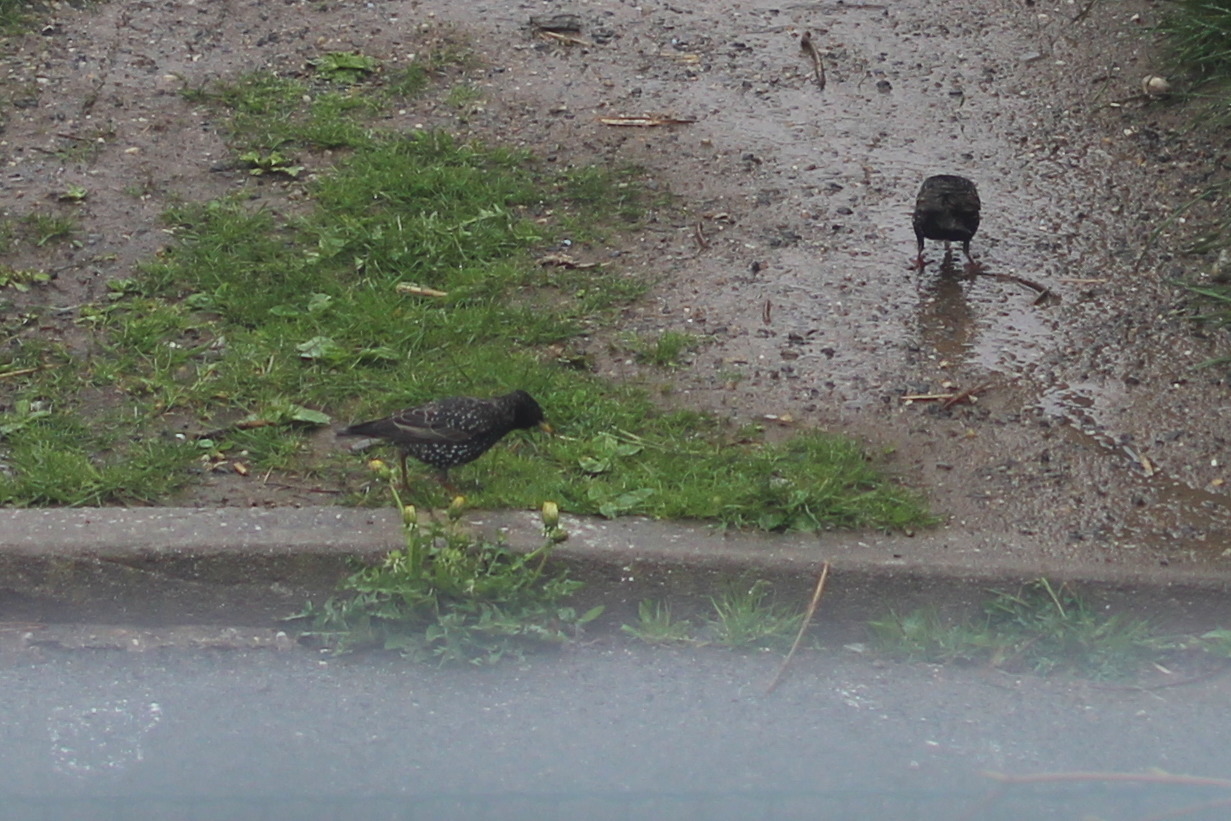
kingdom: Animalia
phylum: Chordata
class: Aves
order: Passeriformes
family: Sturnidae
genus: Sturnus
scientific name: Sturnus vulgaris
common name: Common starling
